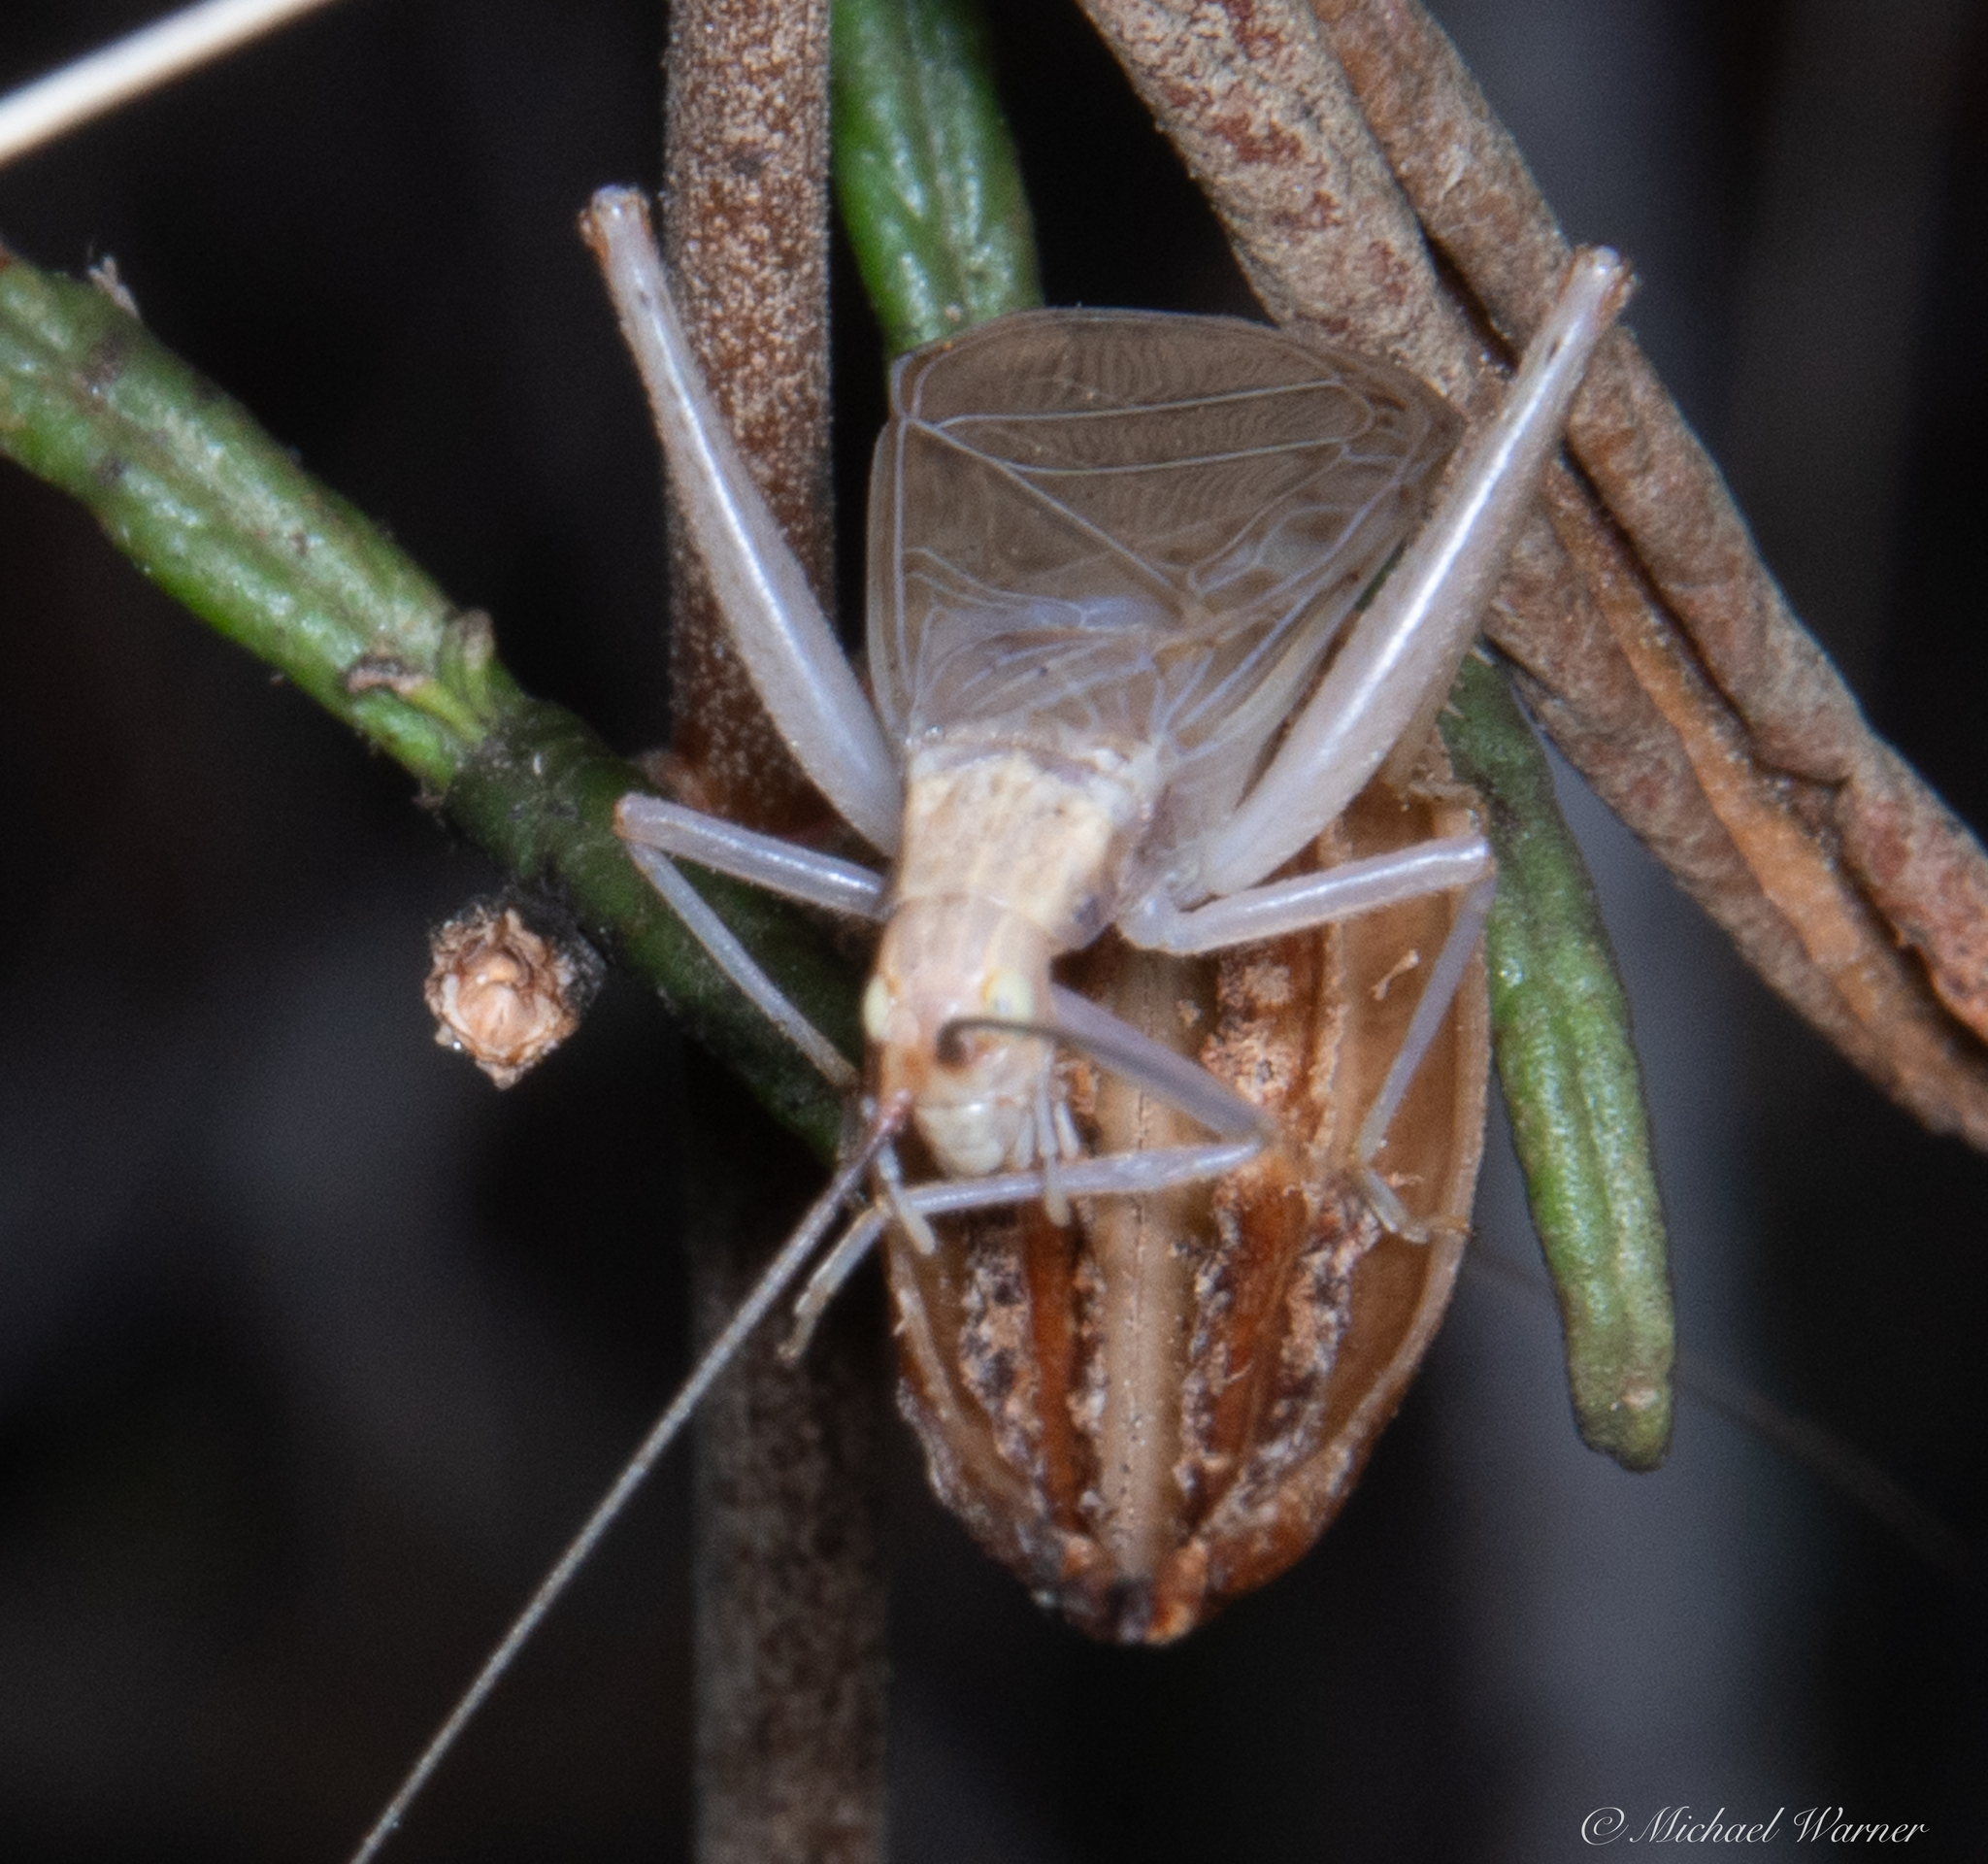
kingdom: Animalia
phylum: Arthropoda
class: Insecta
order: Orthoptera
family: Gryllidae
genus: Oecanthus
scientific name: Oecanthus californicus
